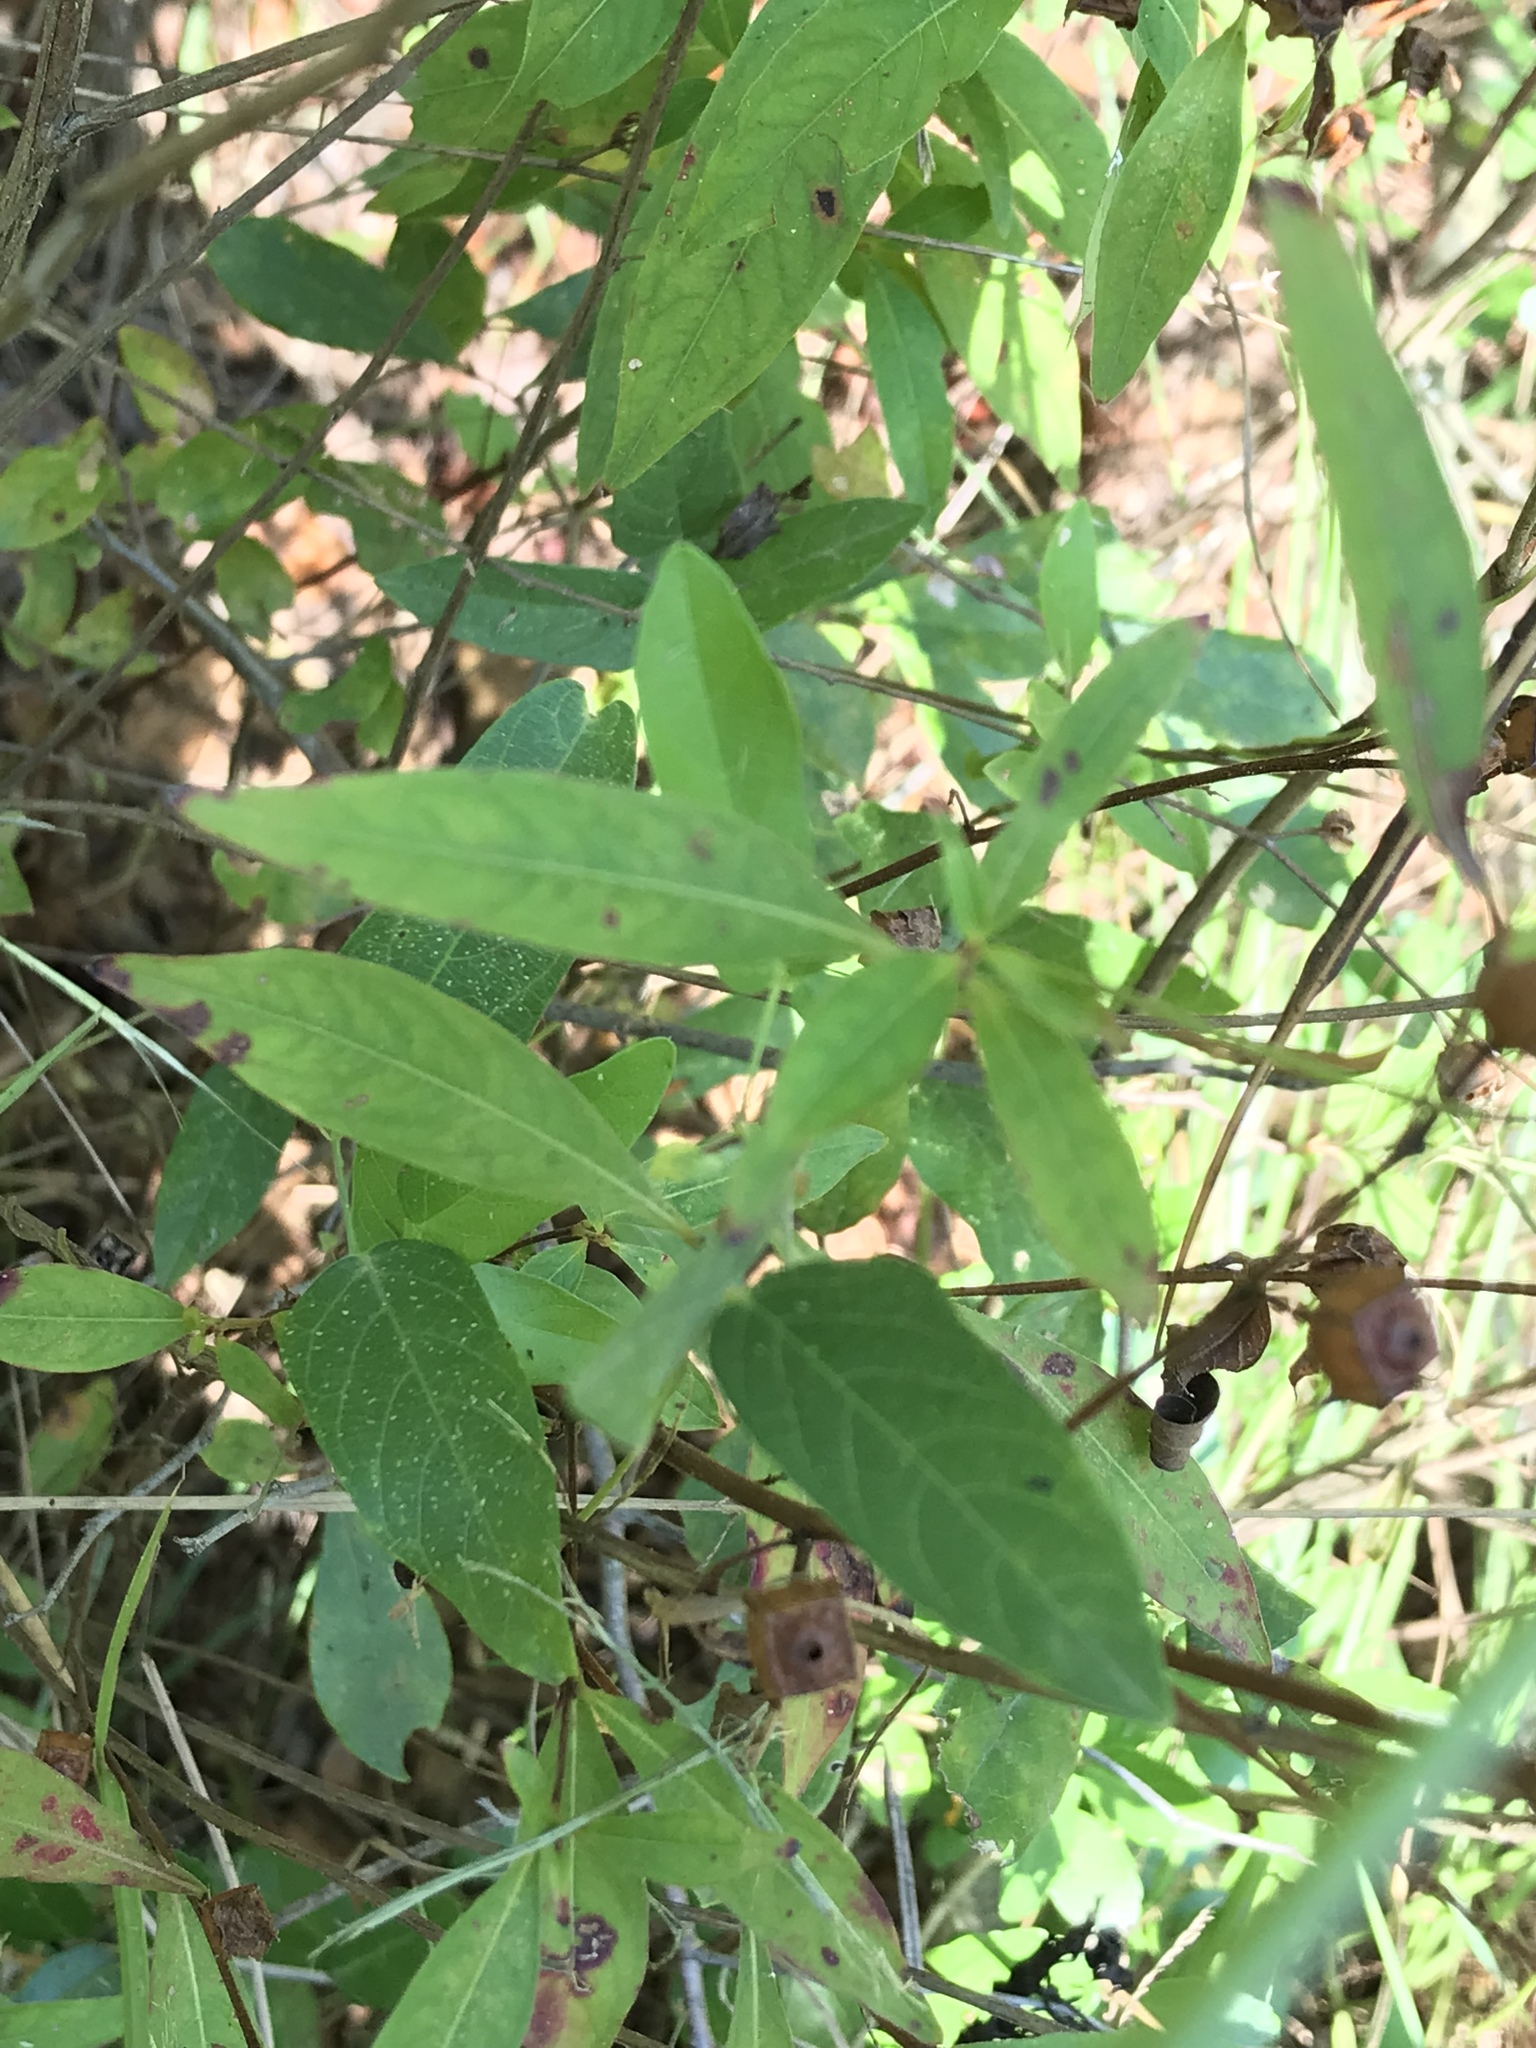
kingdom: Plantae
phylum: Tracheophyta
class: Magnoliopsida
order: Fabales
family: Fabaceae
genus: Centrosema
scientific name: Centrosema virginianum
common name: Butterfly-pea
